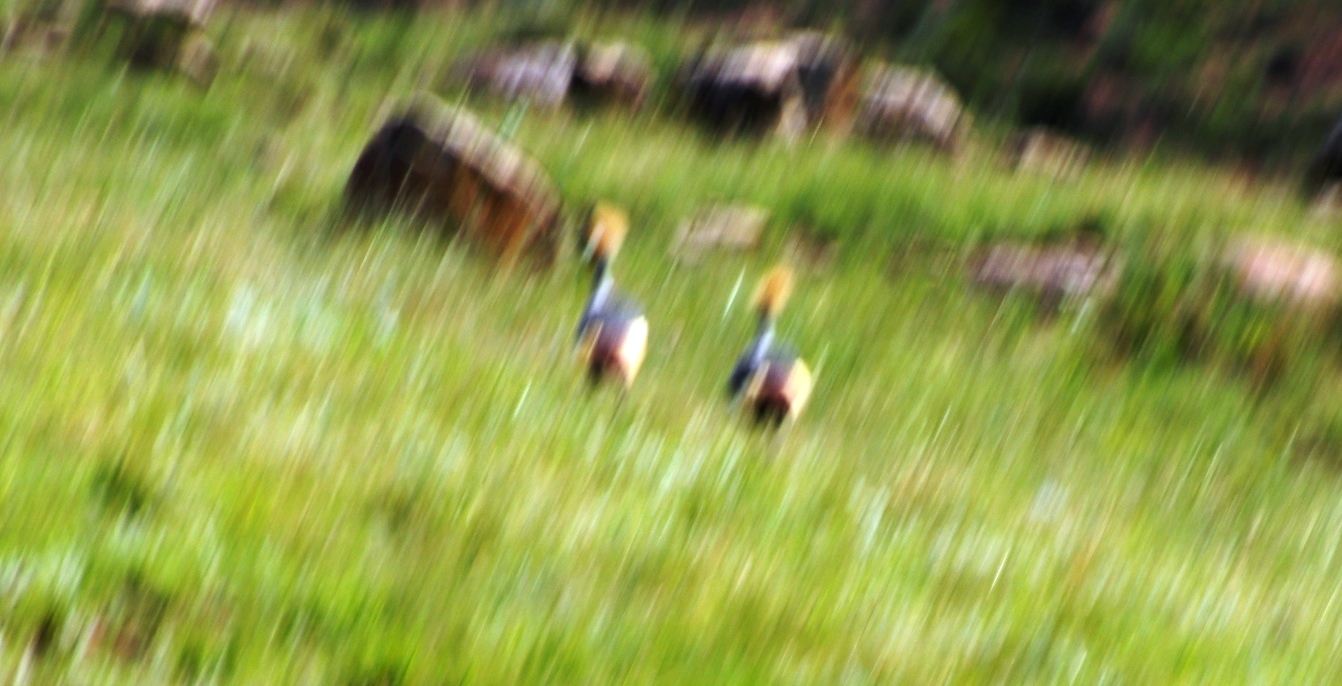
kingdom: Animalia
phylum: Chordata
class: Aves
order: Gruiformes
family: Gruidae
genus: Balearica
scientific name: Balearica regulorum
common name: Grey crowned crane
